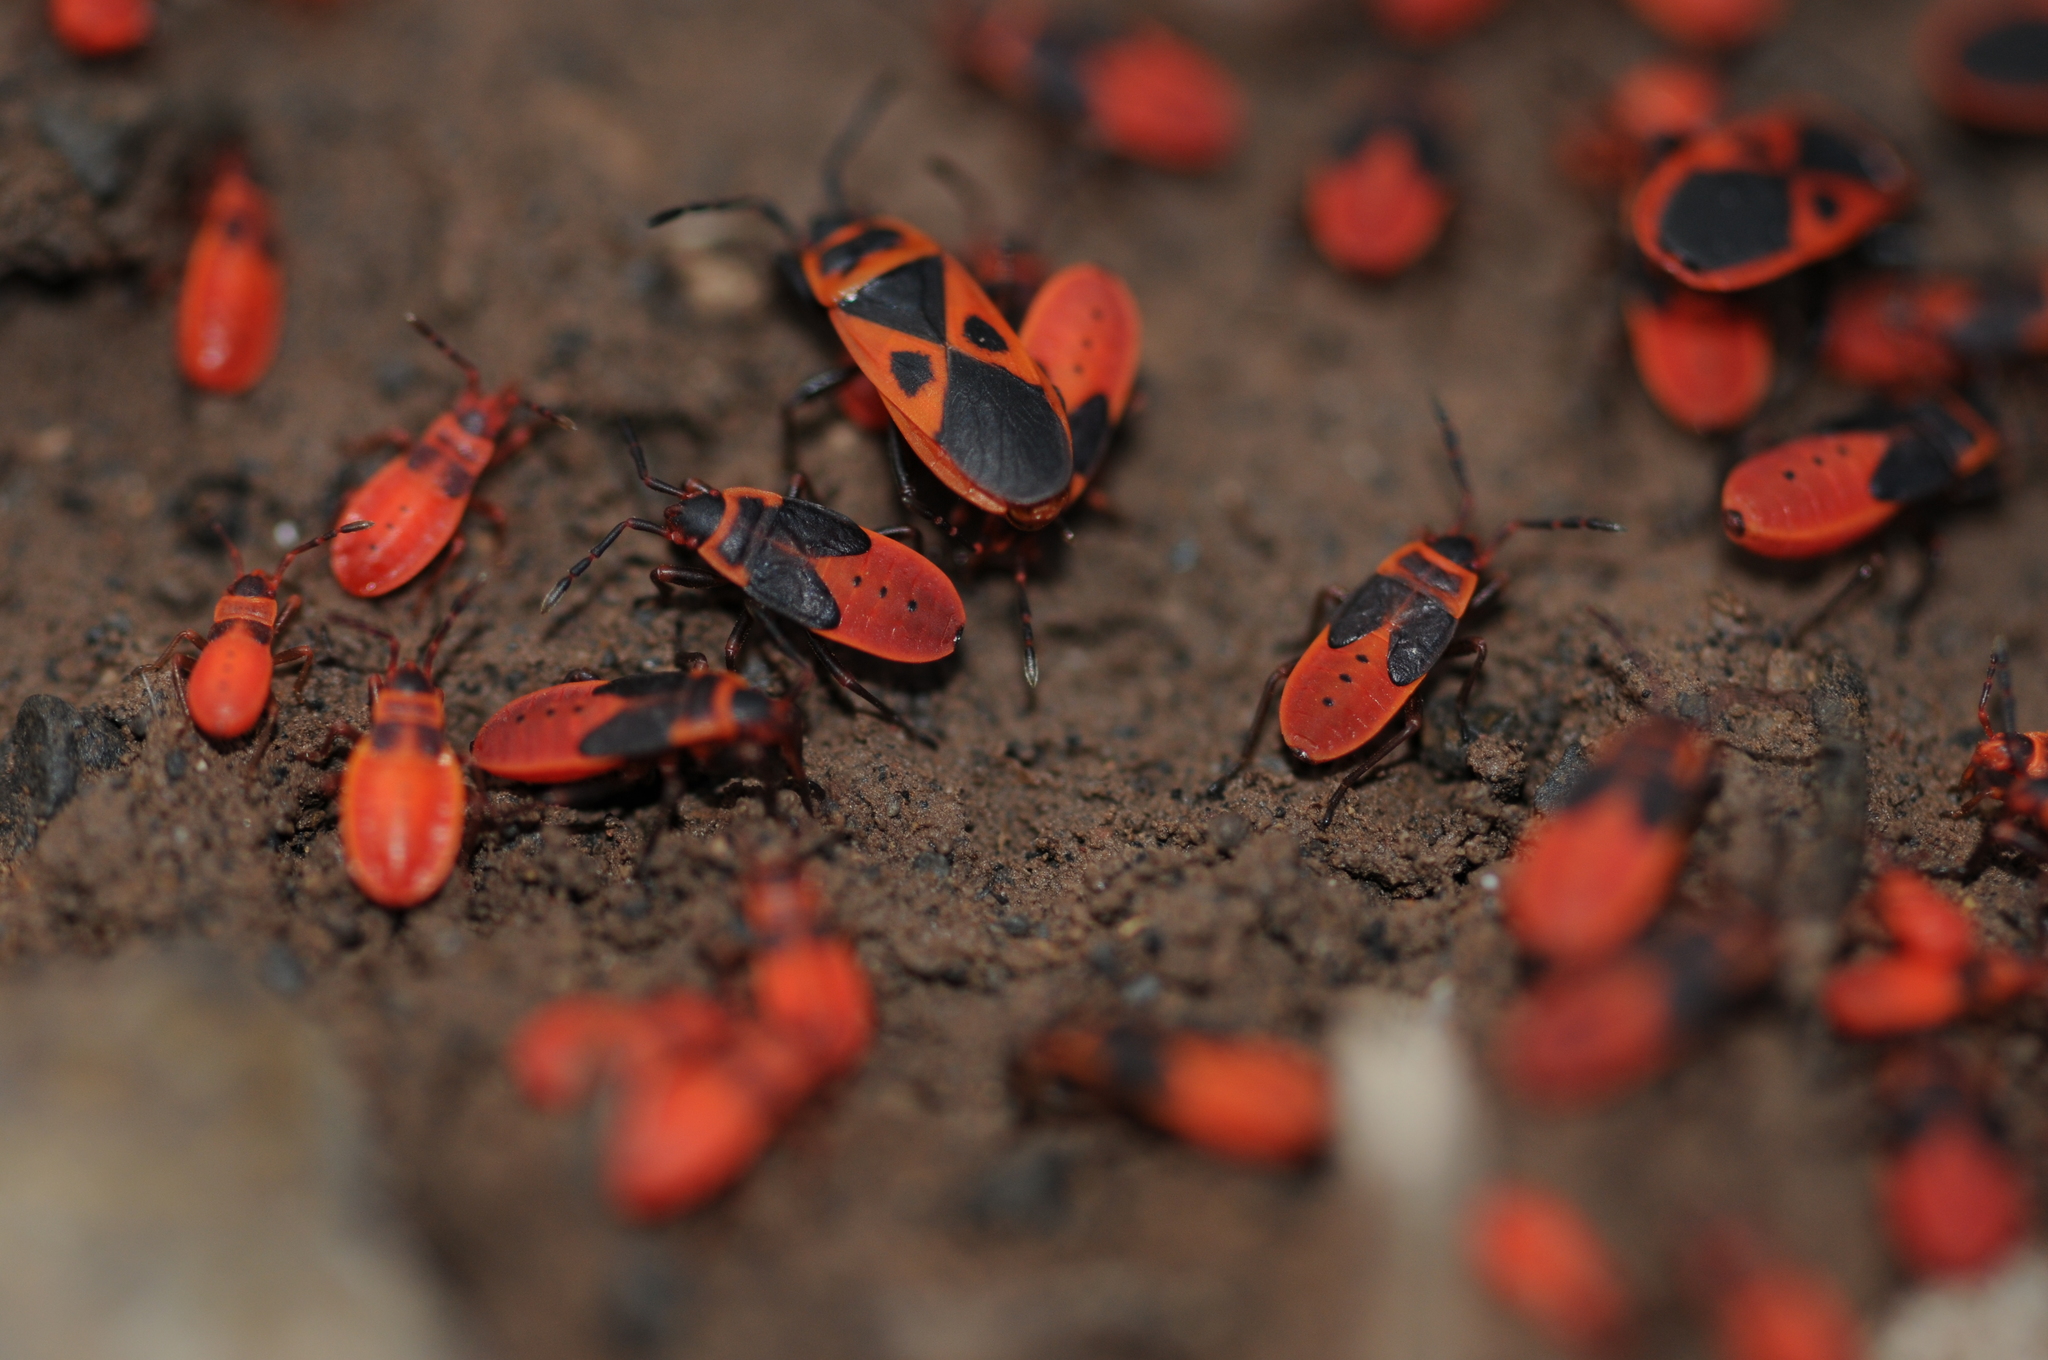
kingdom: Animalia
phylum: Arthropoda
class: Insecta
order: Hemiptera
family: Pyrrhocoridae
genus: Scantius
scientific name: Scantius aegyptius
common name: Red bug
